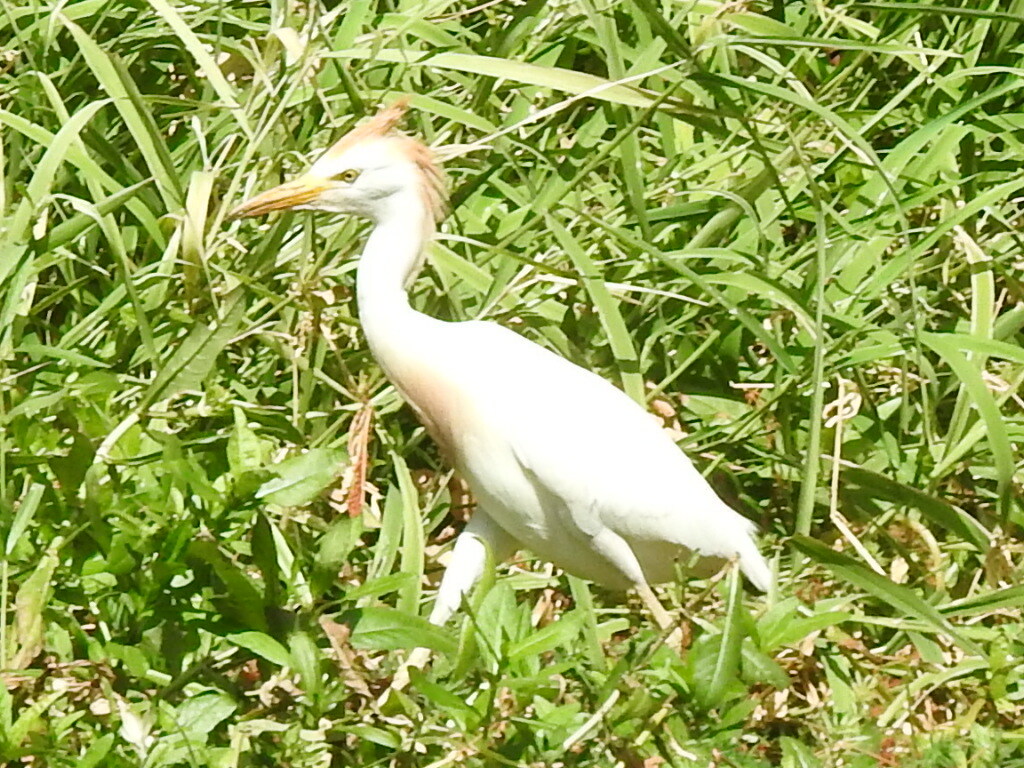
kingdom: Animalia
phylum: Chordata
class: Aves
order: Pelecaniformes
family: Ardeidae
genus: Bubulcus
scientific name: Bubulcus ibis
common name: Cattle egret
